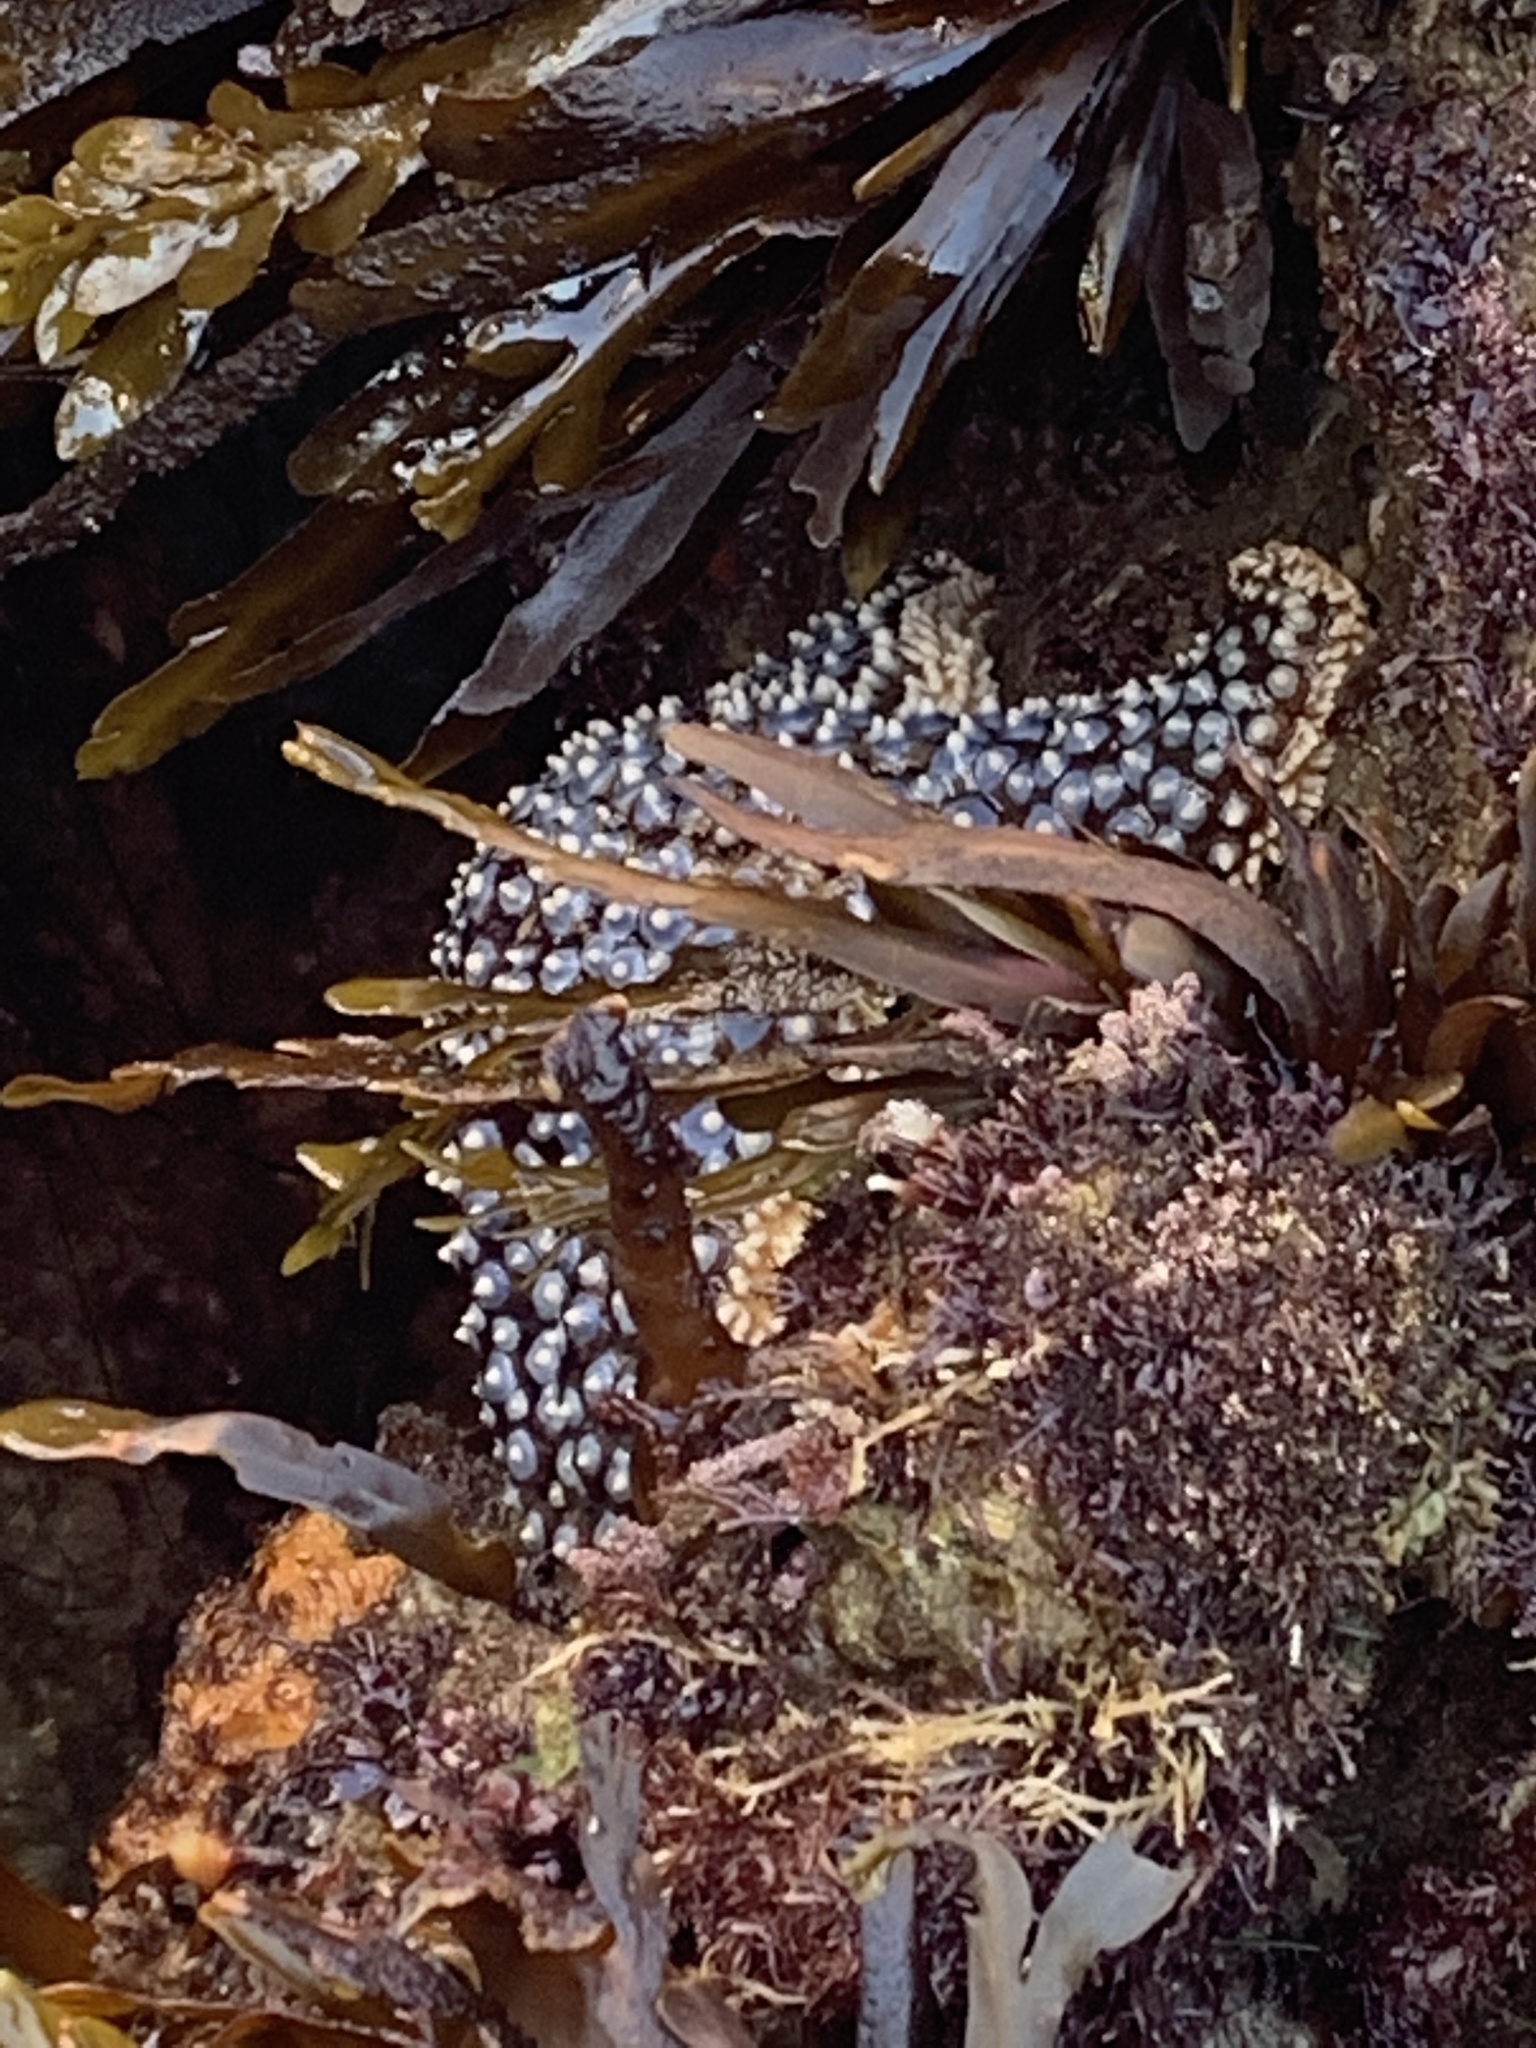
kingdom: Animalia
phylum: Echinodermata
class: Asteroidea
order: Forcipulatida
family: Asteriidae
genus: Pisaster
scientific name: Pisaster giganteus
